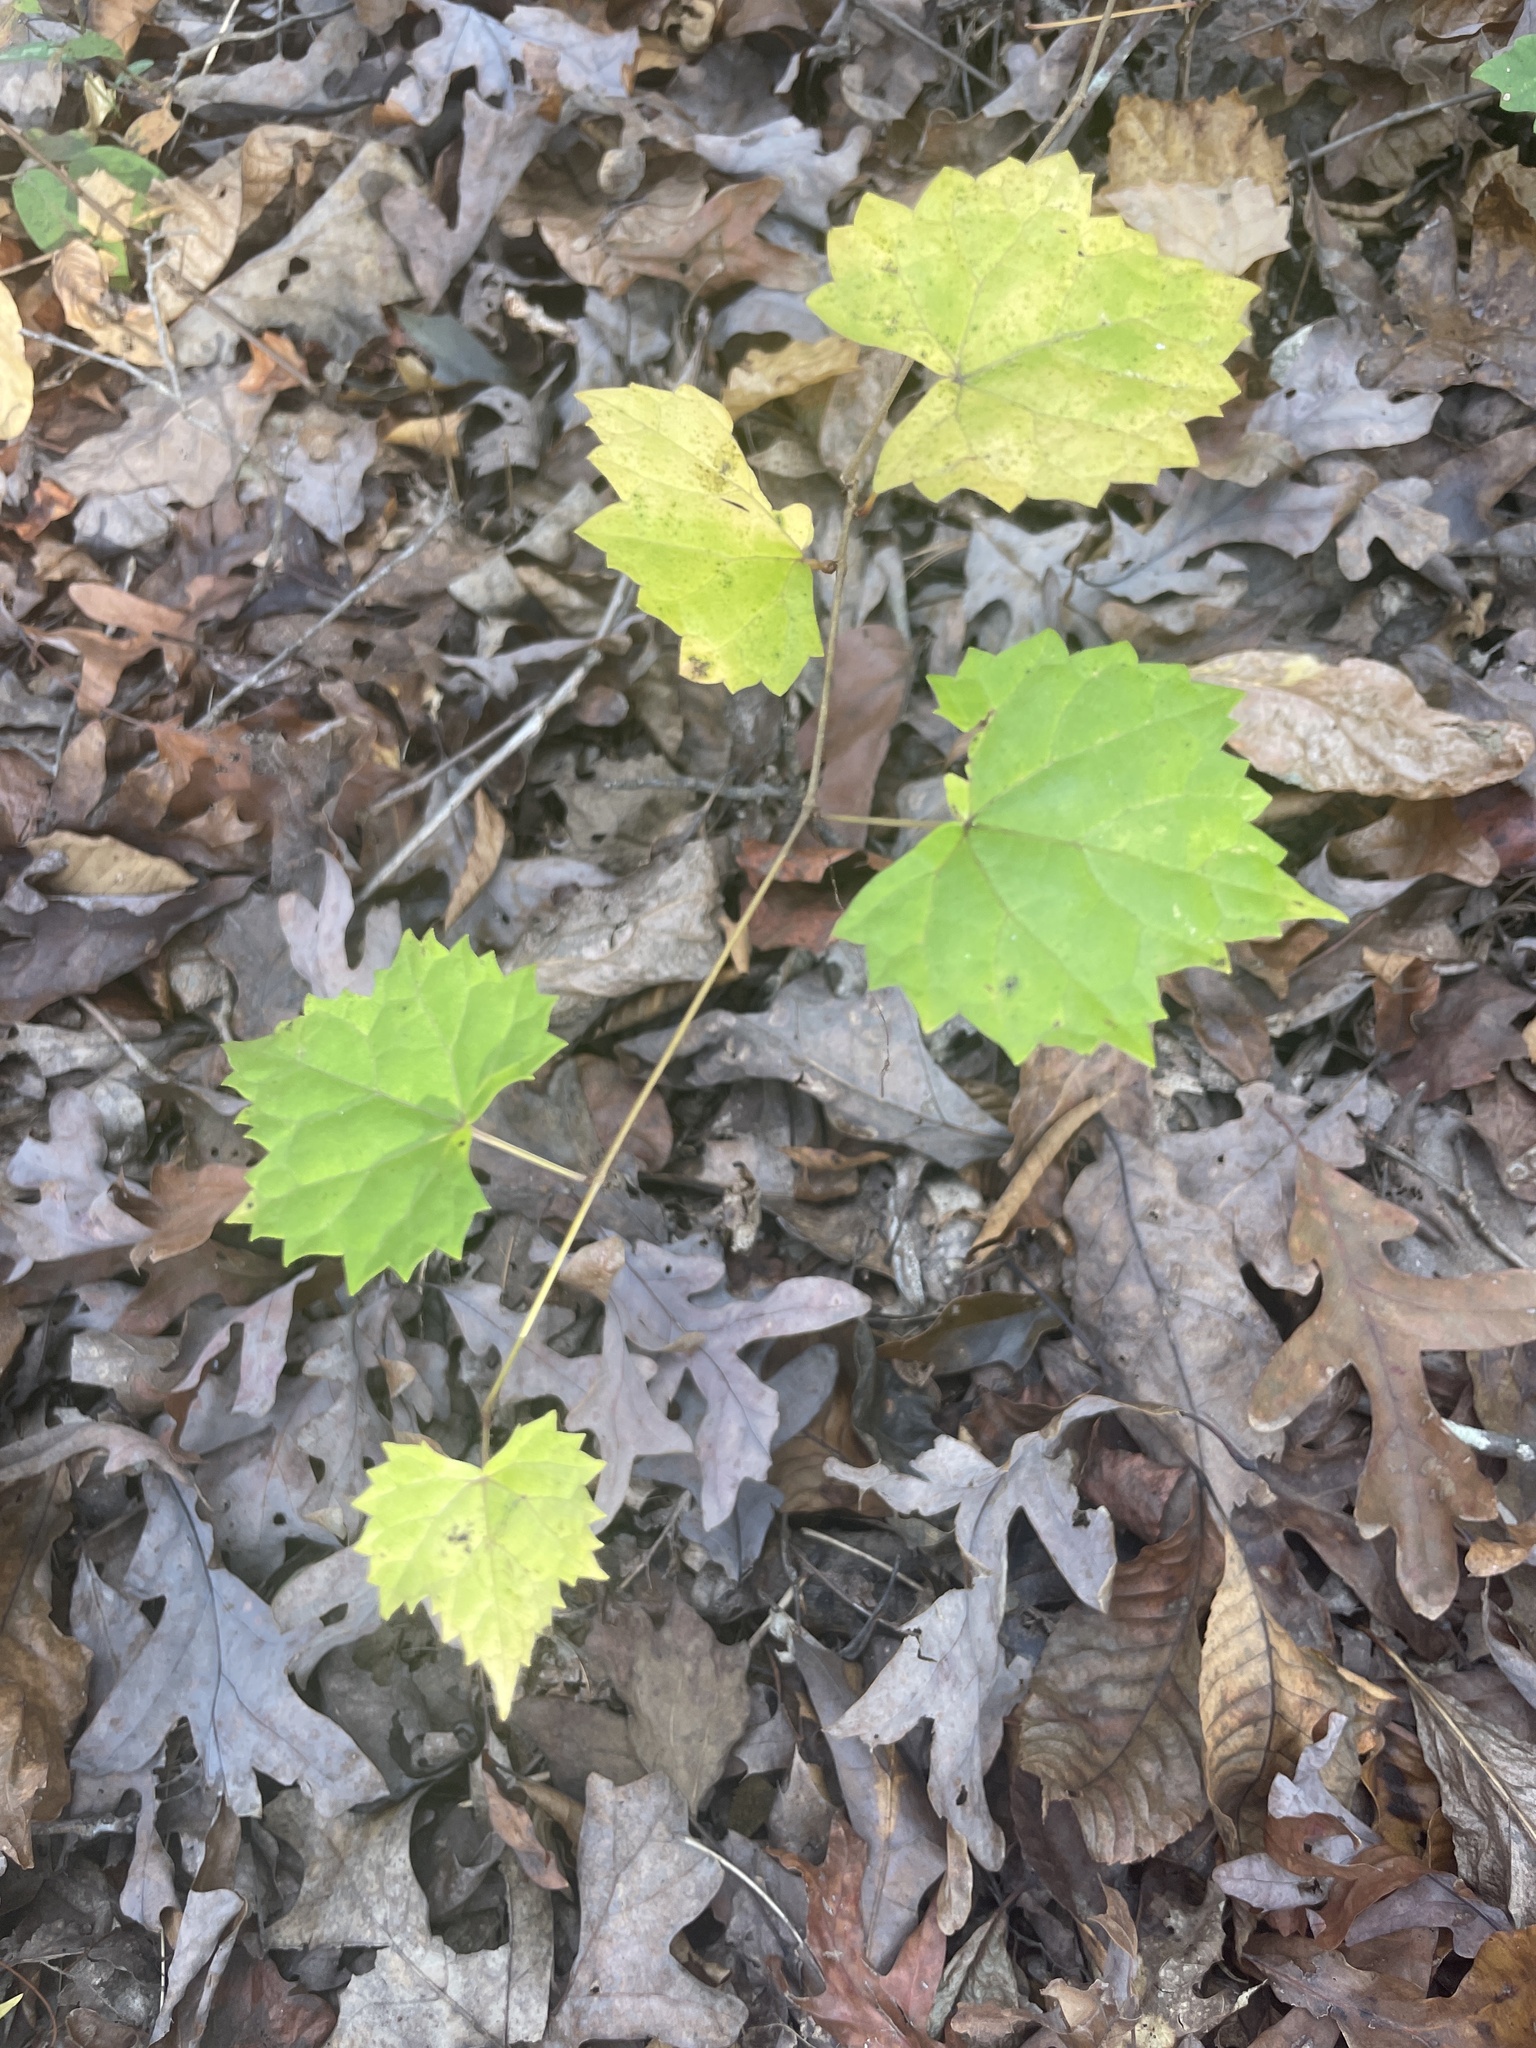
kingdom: Plantae
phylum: Tracheophyta
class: Magnoliopsida
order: Vitales
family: Vitaceae
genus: Vitis
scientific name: Vitis rotundifolia
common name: Muscadine grape
